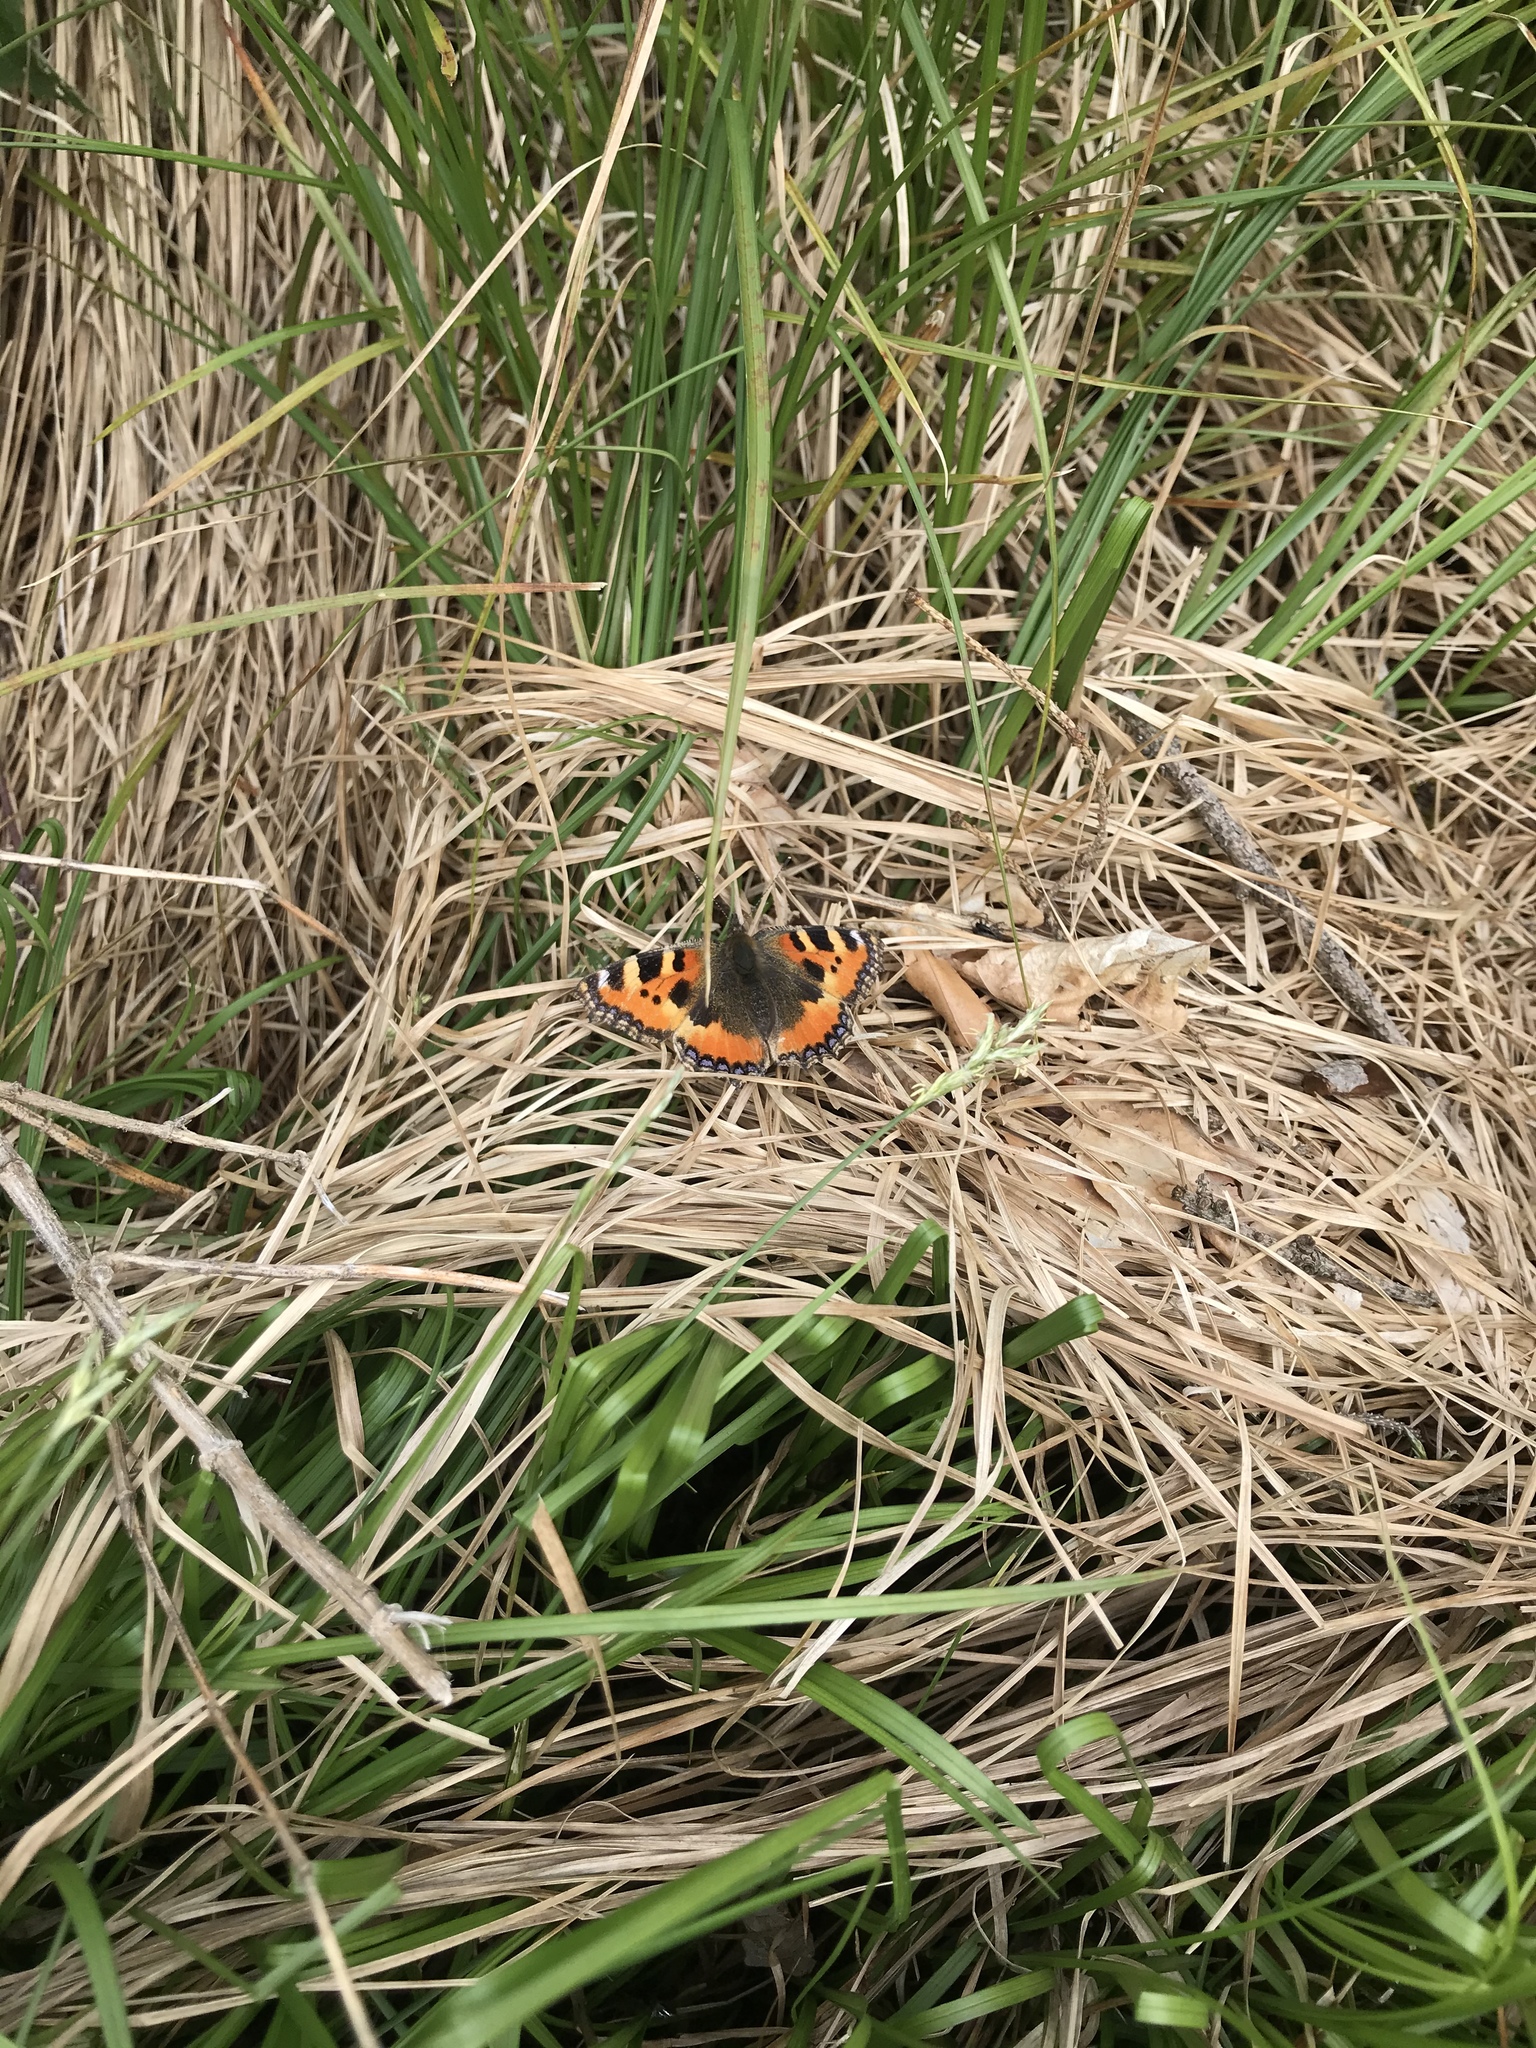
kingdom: Animalia
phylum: Arthropoda
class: Insecta
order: Lepidoptera
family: Nymphalidae
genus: Aglais
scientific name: Aglais urticae
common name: Small tortoiseshell
